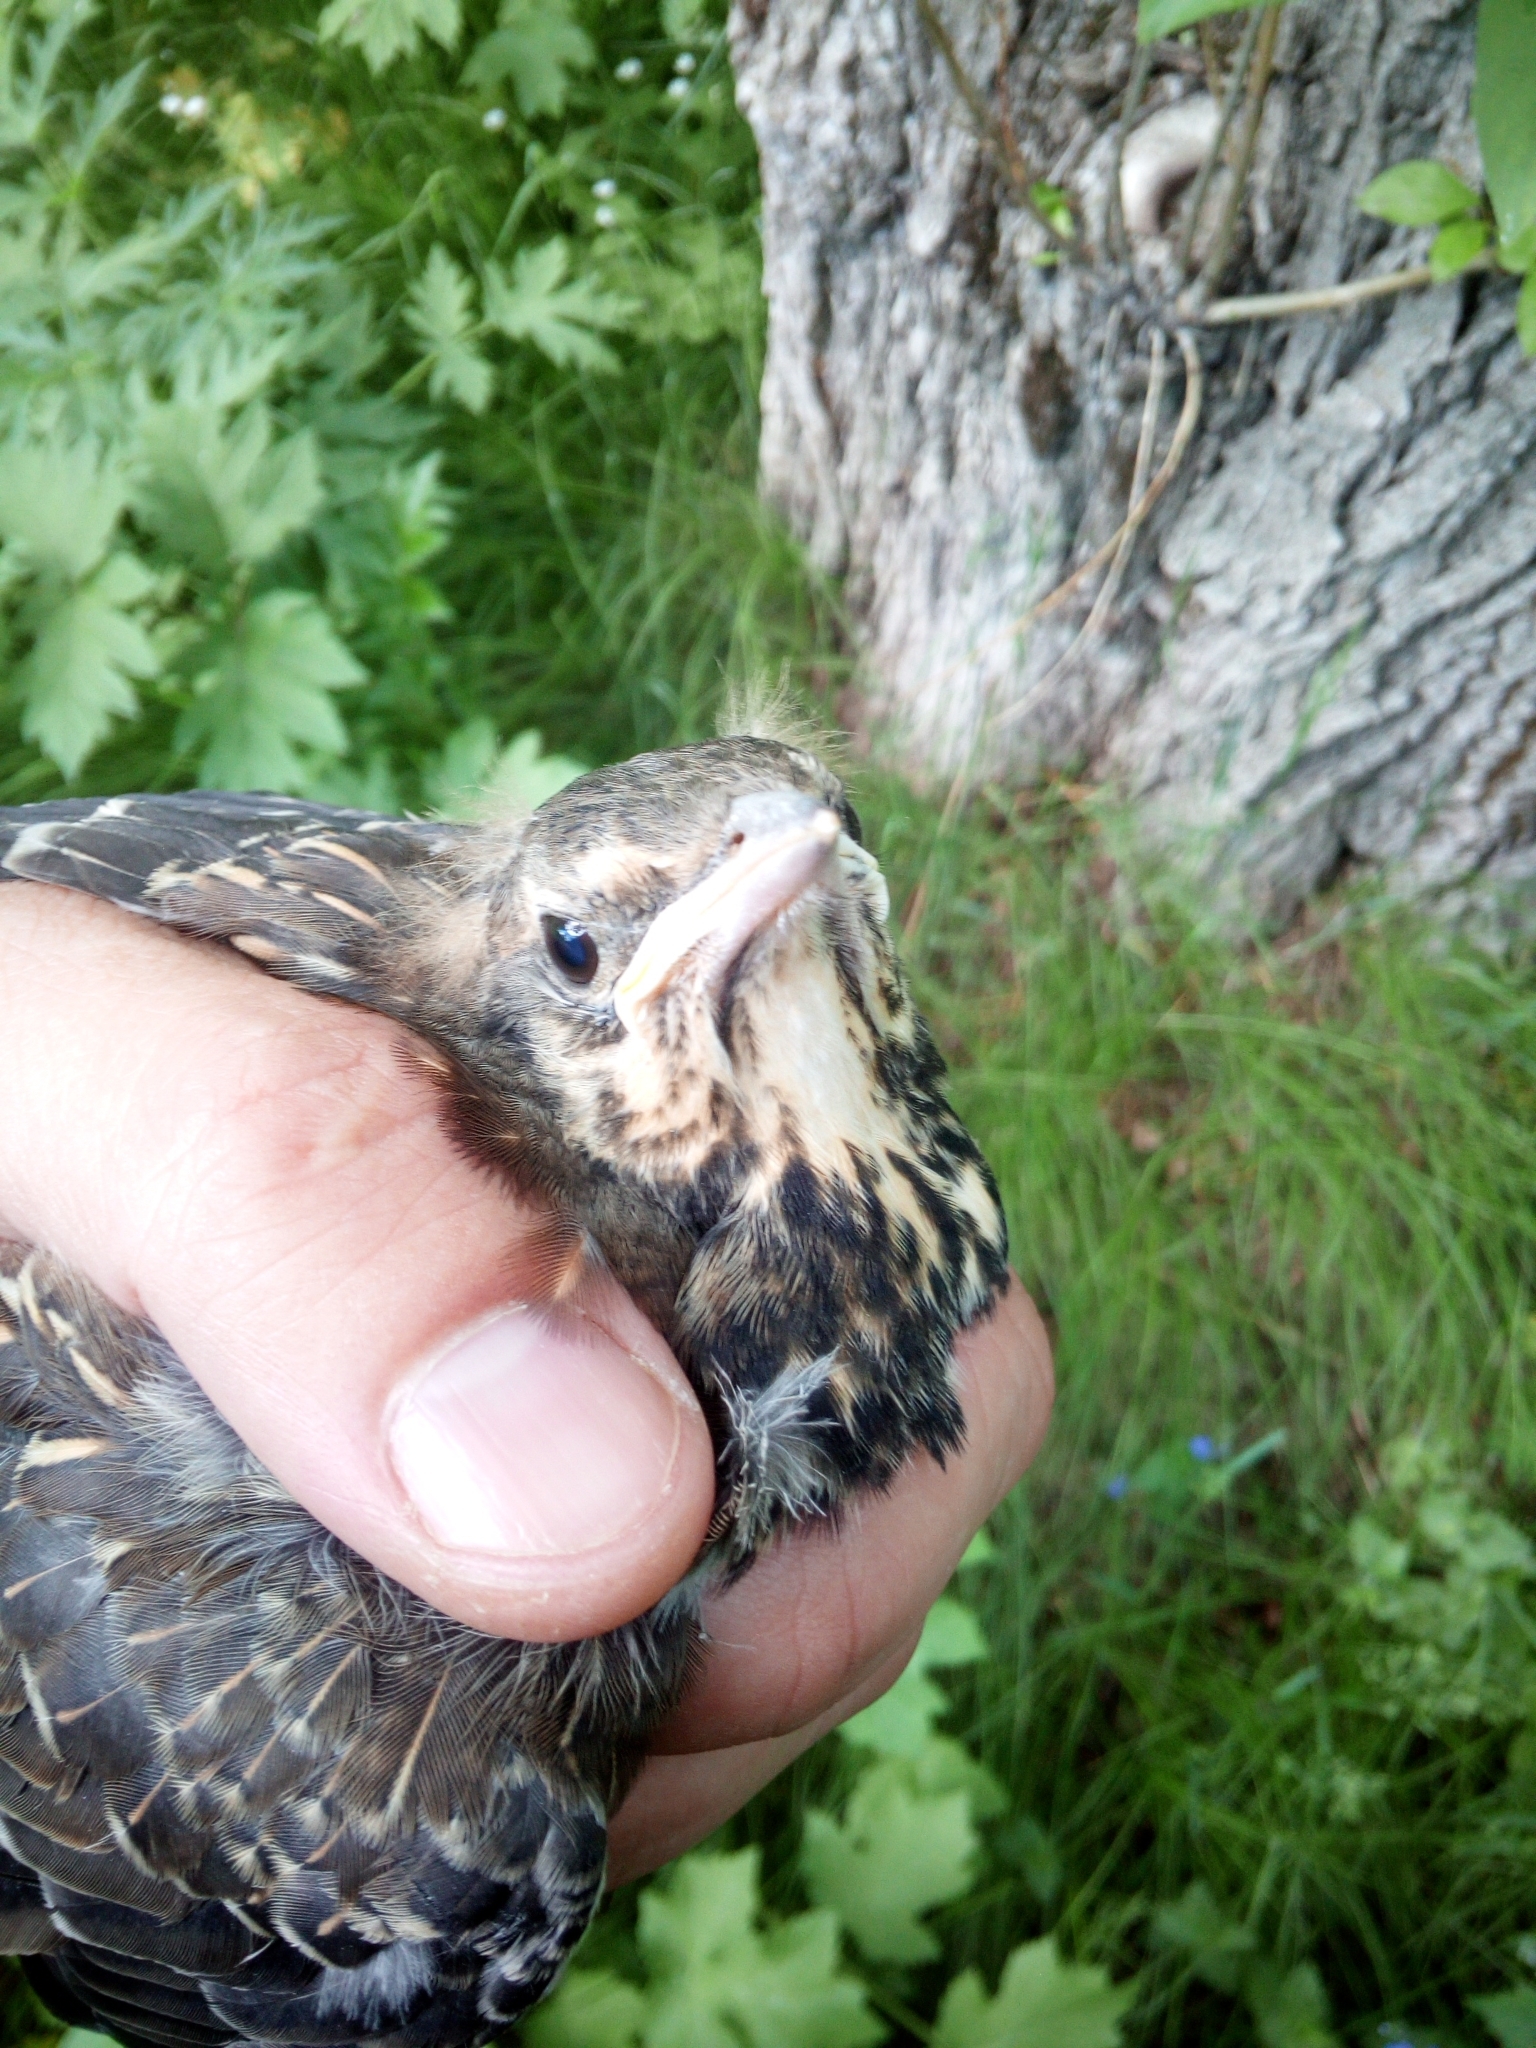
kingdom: Animalia
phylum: Chordata
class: Aves
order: Passeriformes
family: Turdidae
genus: Turdus
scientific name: Turdus pilaris
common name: Fieldfare
